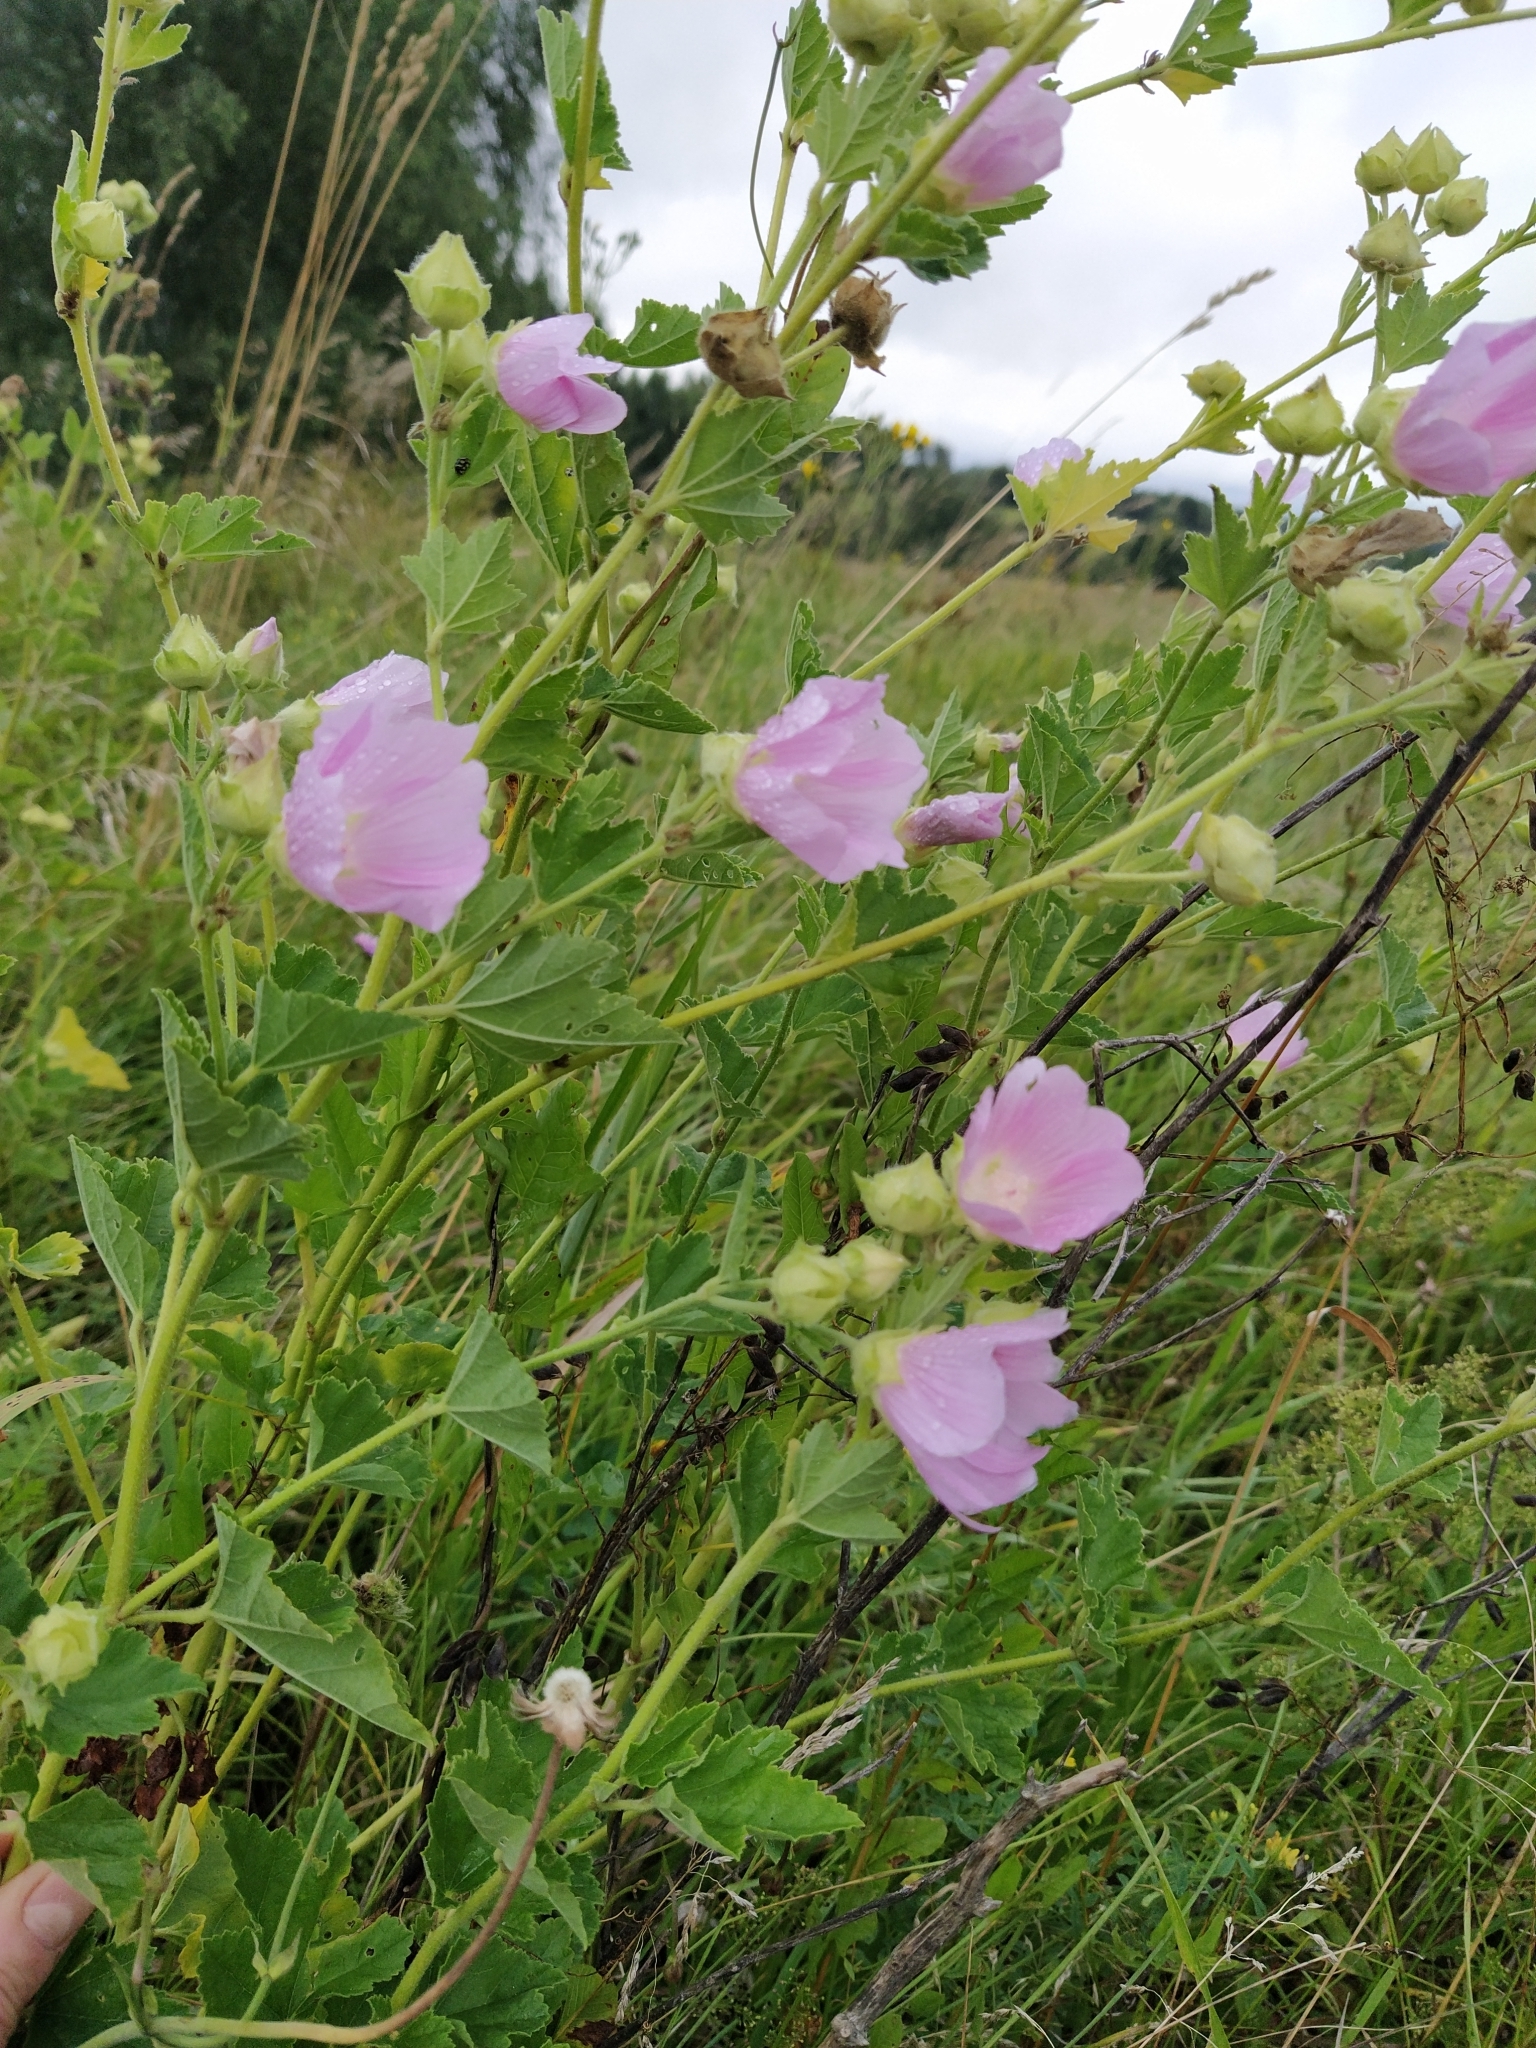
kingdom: Plantae
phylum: Tracheophyta
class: Magnoliopsida
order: Malvales
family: Malvaceae
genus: Malva
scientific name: Malva thuringiaca
